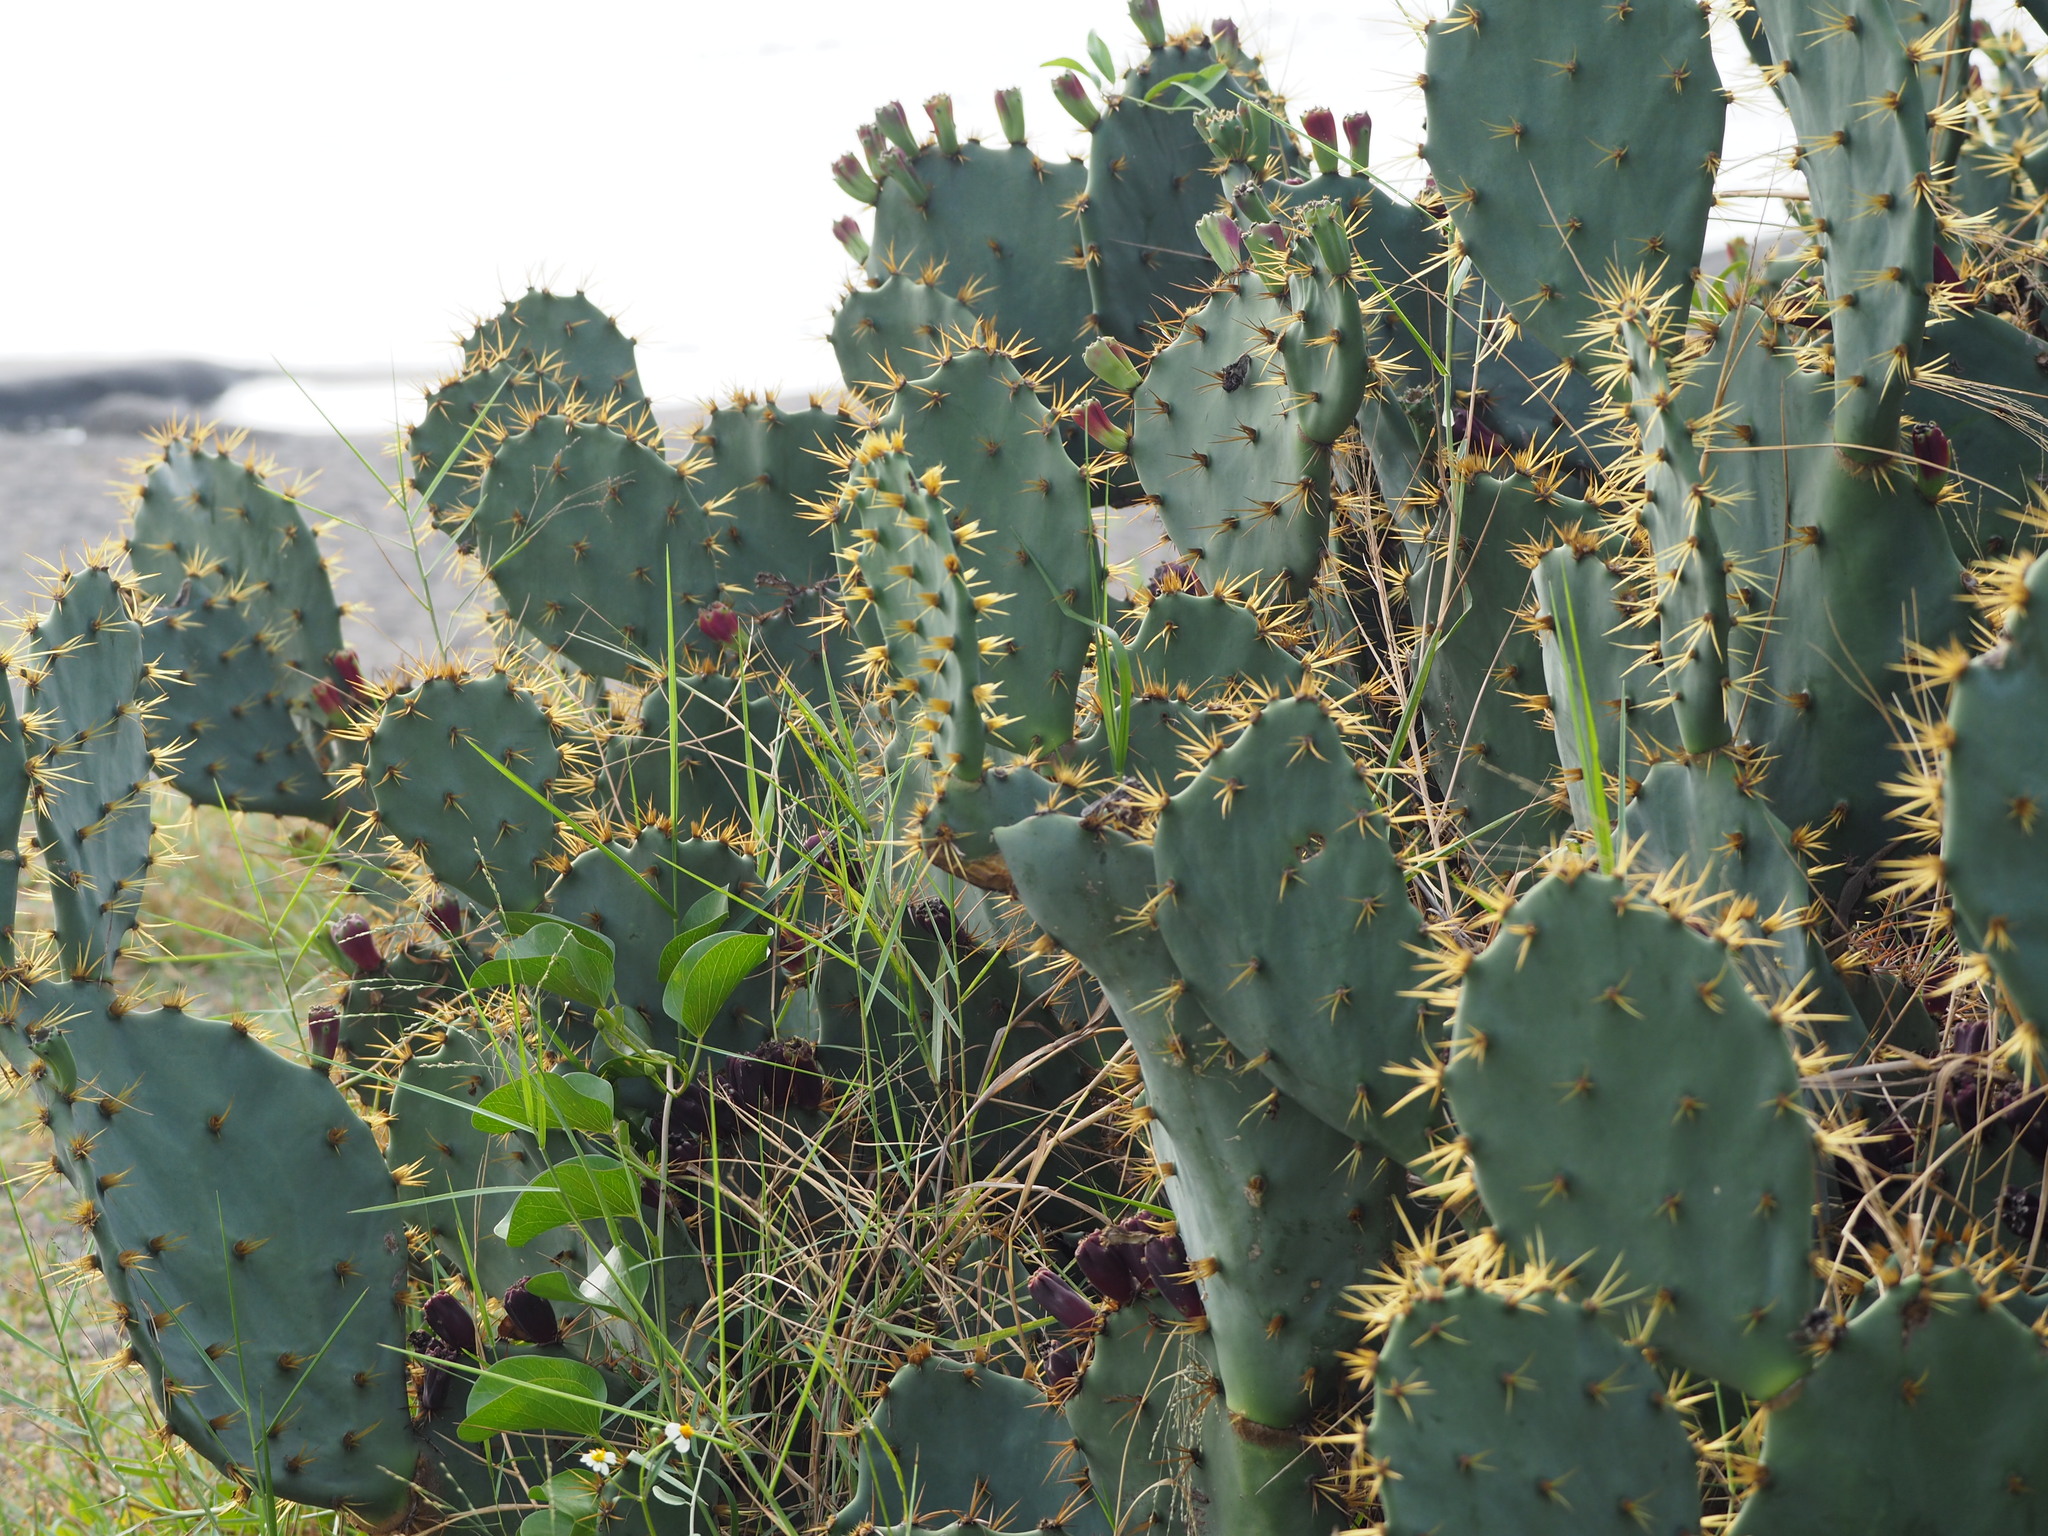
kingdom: Plantae
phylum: Tracheophyta
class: Magnoliopsida
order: Caryophyllales
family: Cactaceae
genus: Opuntia
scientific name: Opuntia dillenii
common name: Sour prickle
